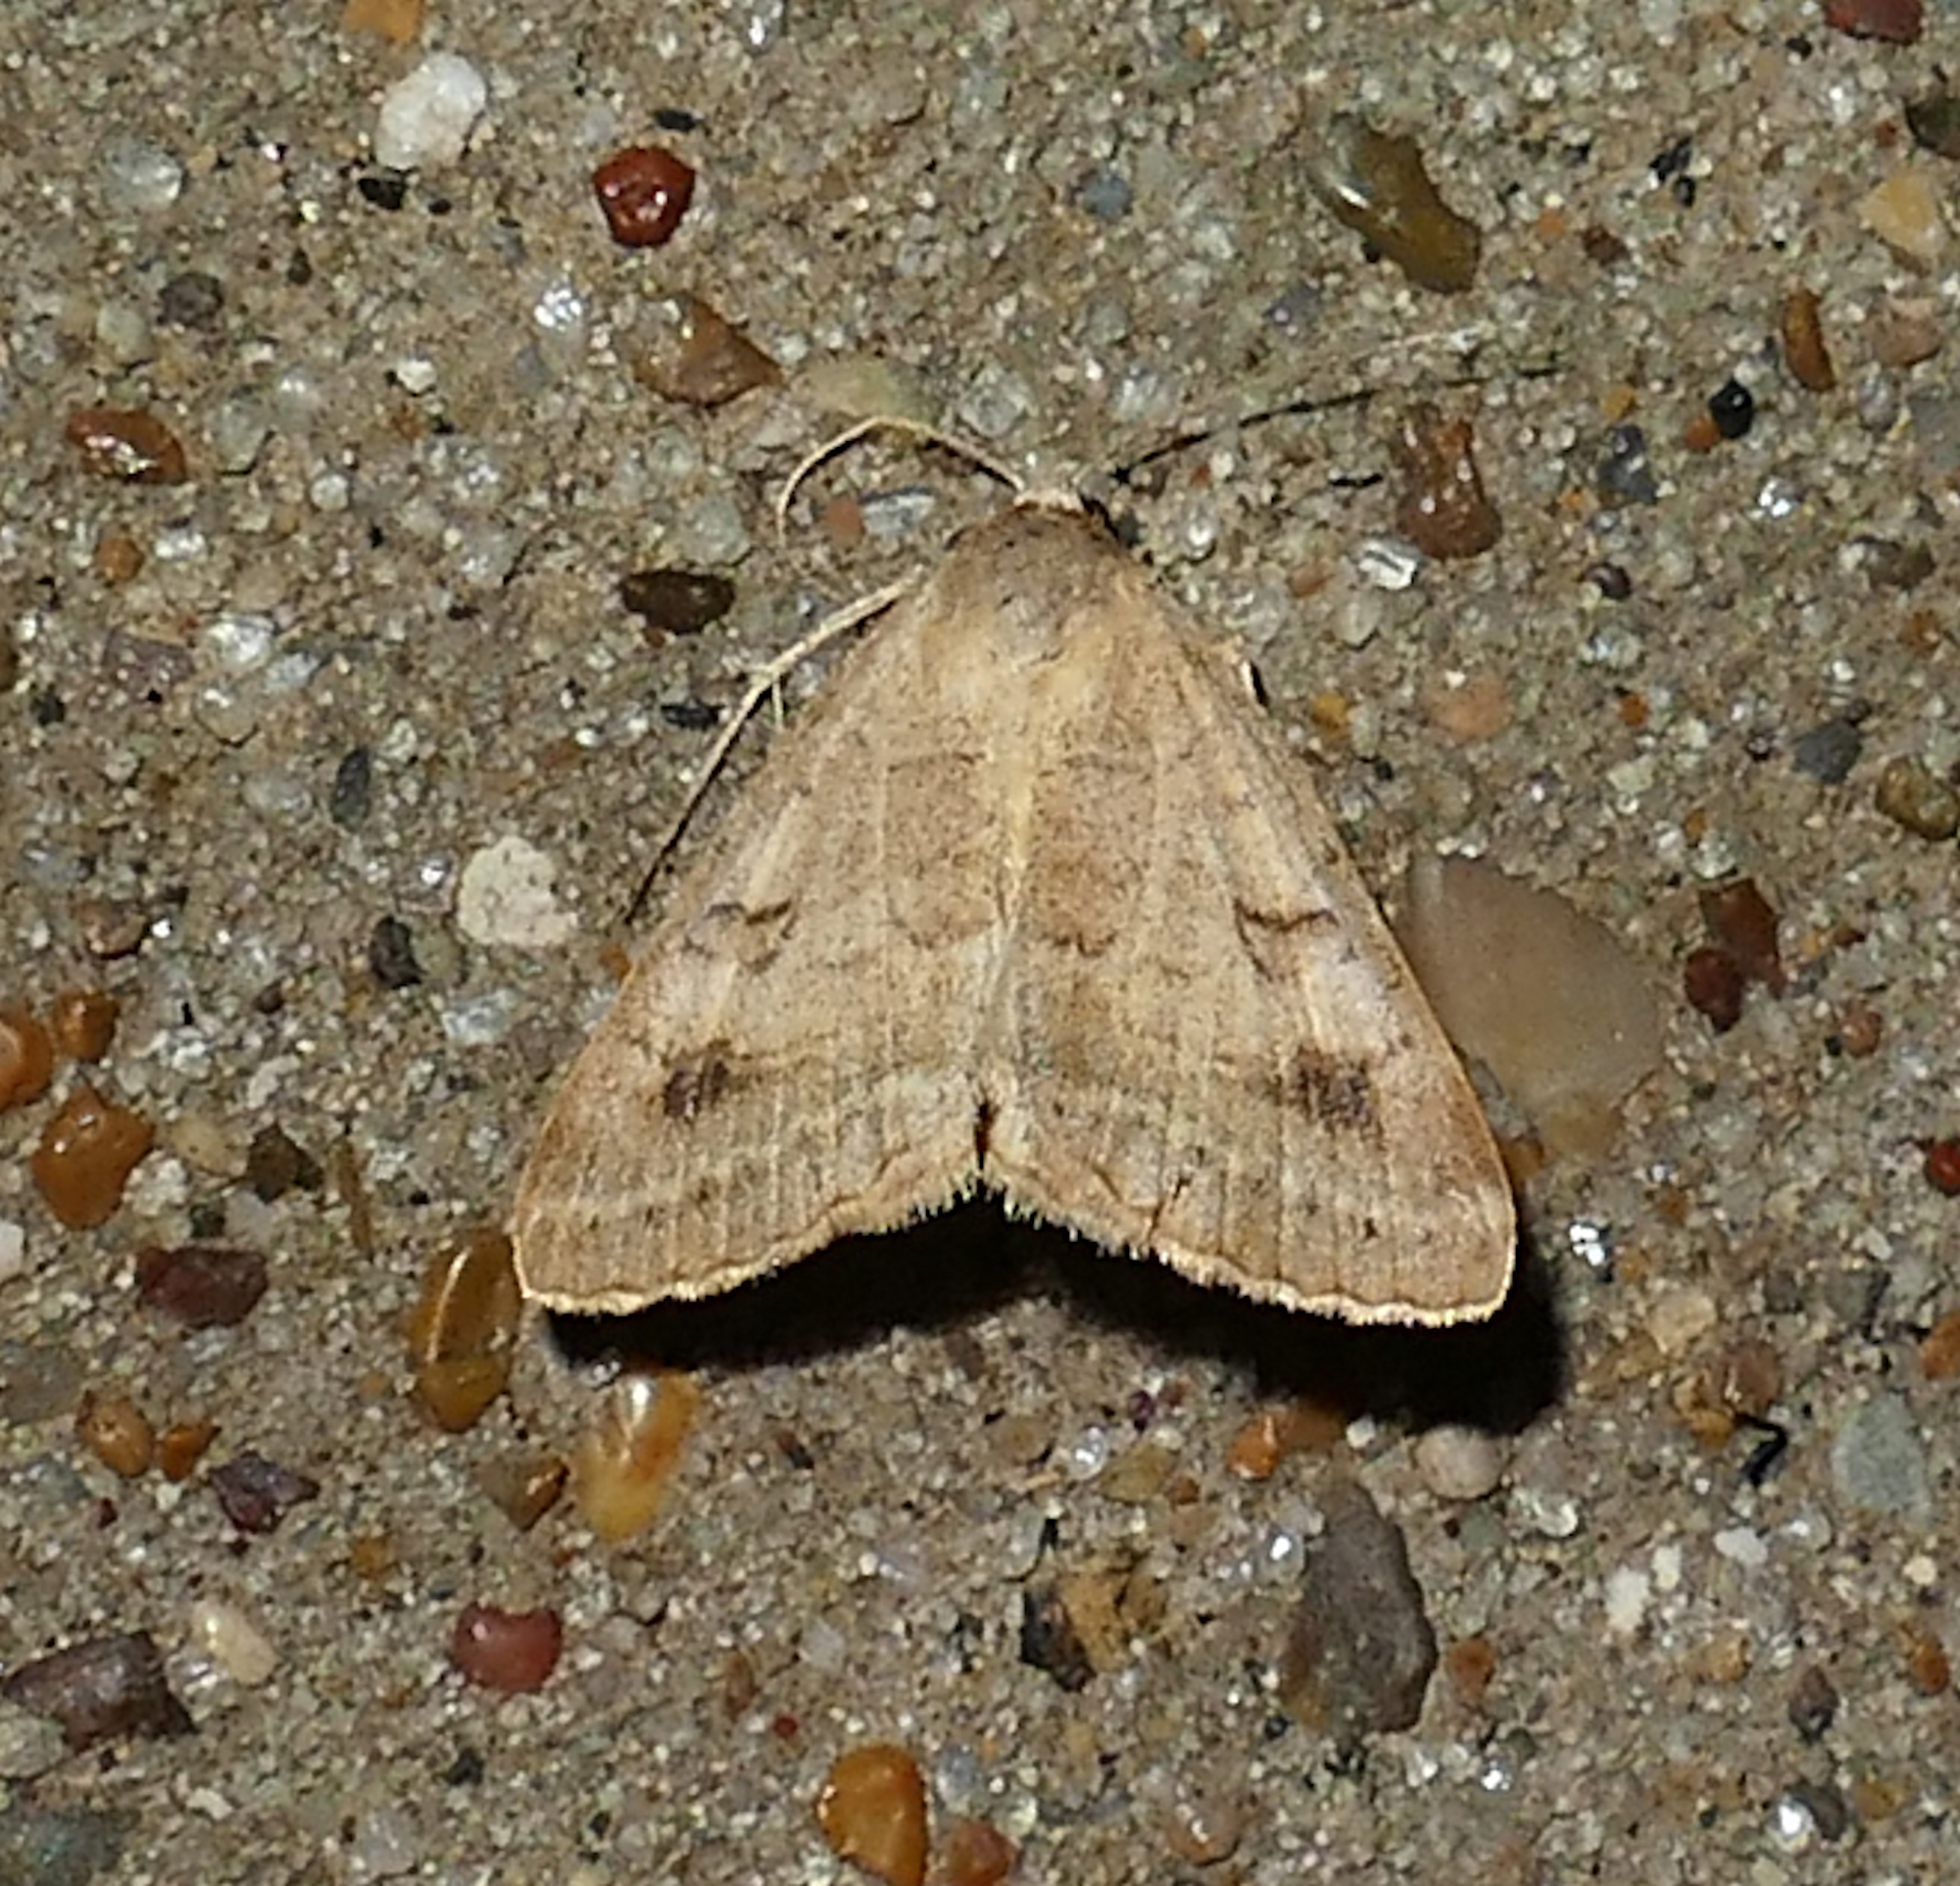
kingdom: Animalia
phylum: Arthropoda
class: Insecta
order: Lepidoptera
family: Erebidae
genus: Caenurgia
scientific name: Caenurgia chloropha
